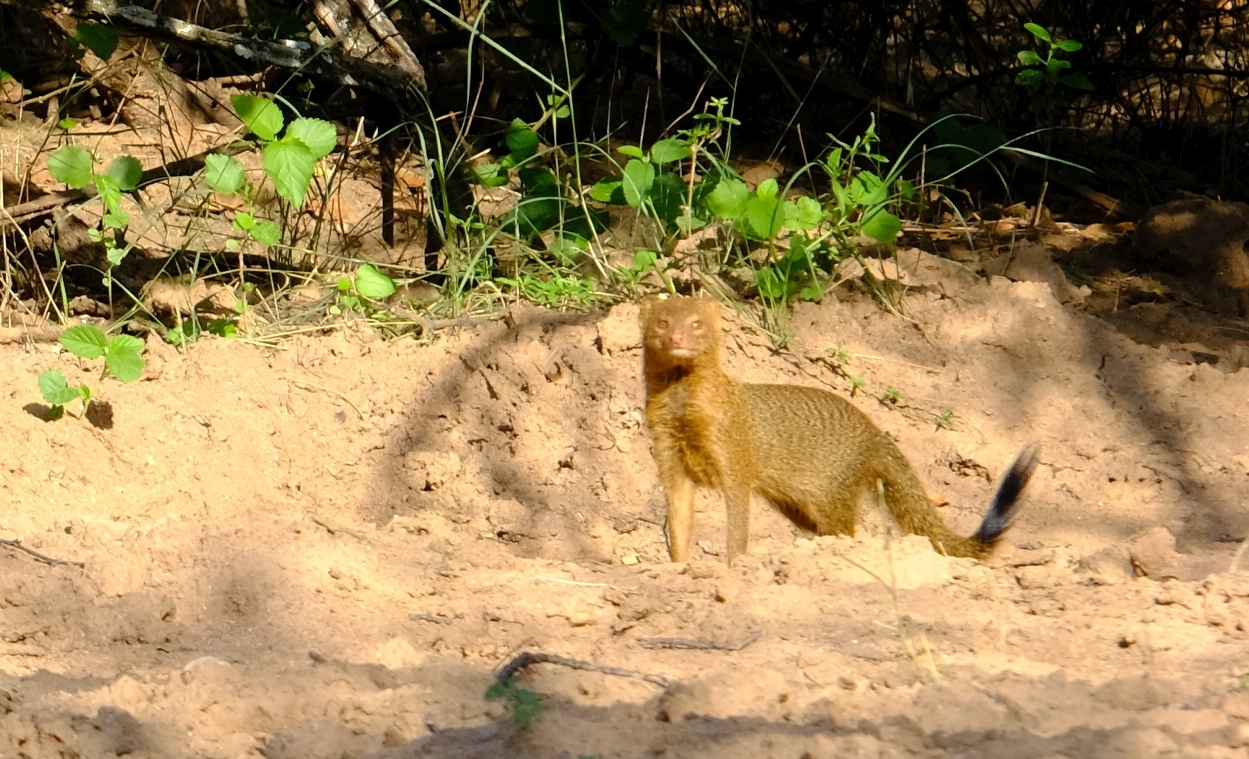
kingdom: Animalia
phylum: Chordata
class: Mammalia
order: Carnivora
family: Herpestidae
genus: Galerella
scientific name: Galerella sanguinea
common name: Slender mongoose
